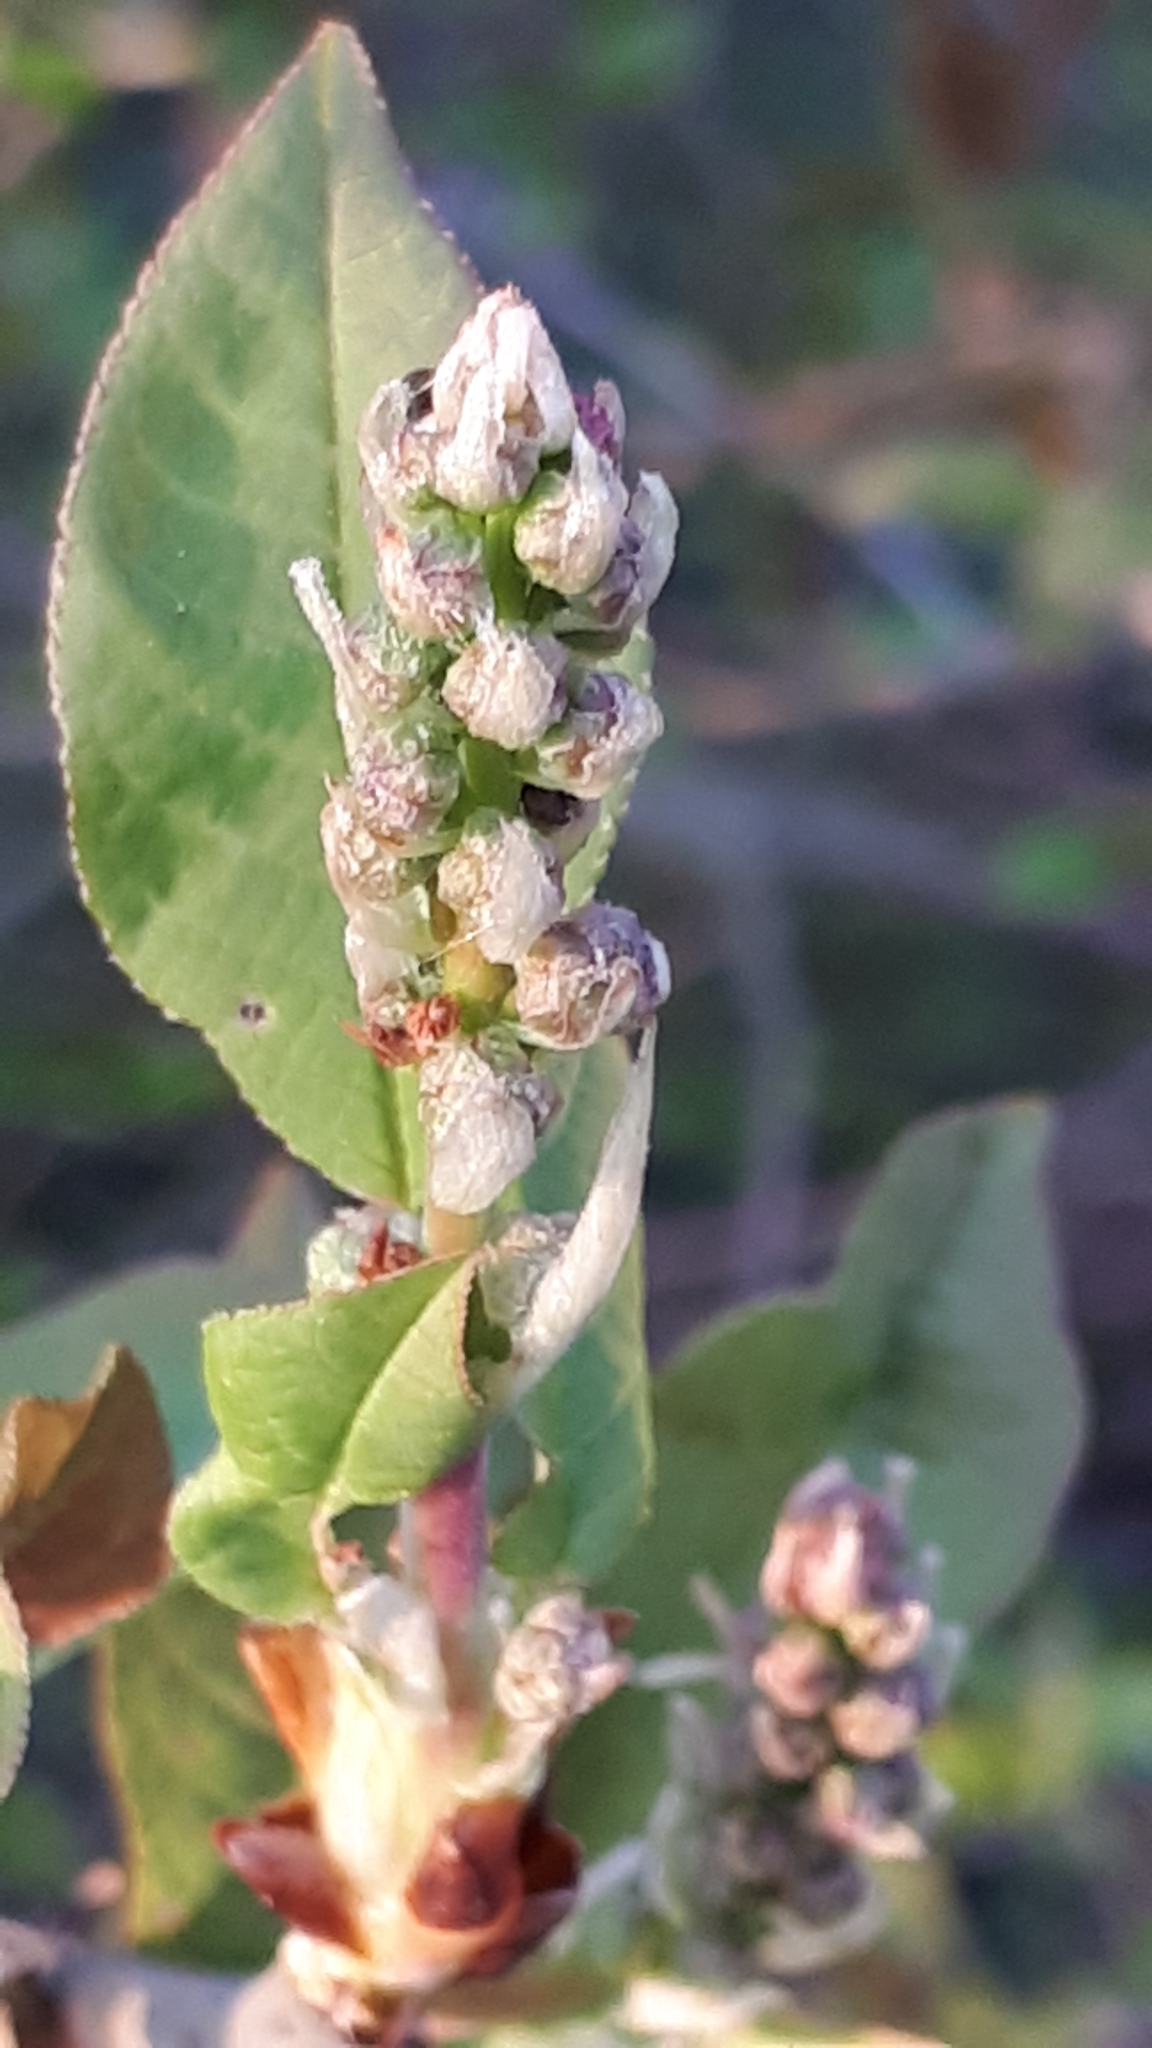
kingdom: Plantae
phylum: Tracheophyta
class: Magnoliopsida
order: Rosales
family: Rosaceae
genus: Prunus
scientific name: Prunus padus
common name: Bird cherry
